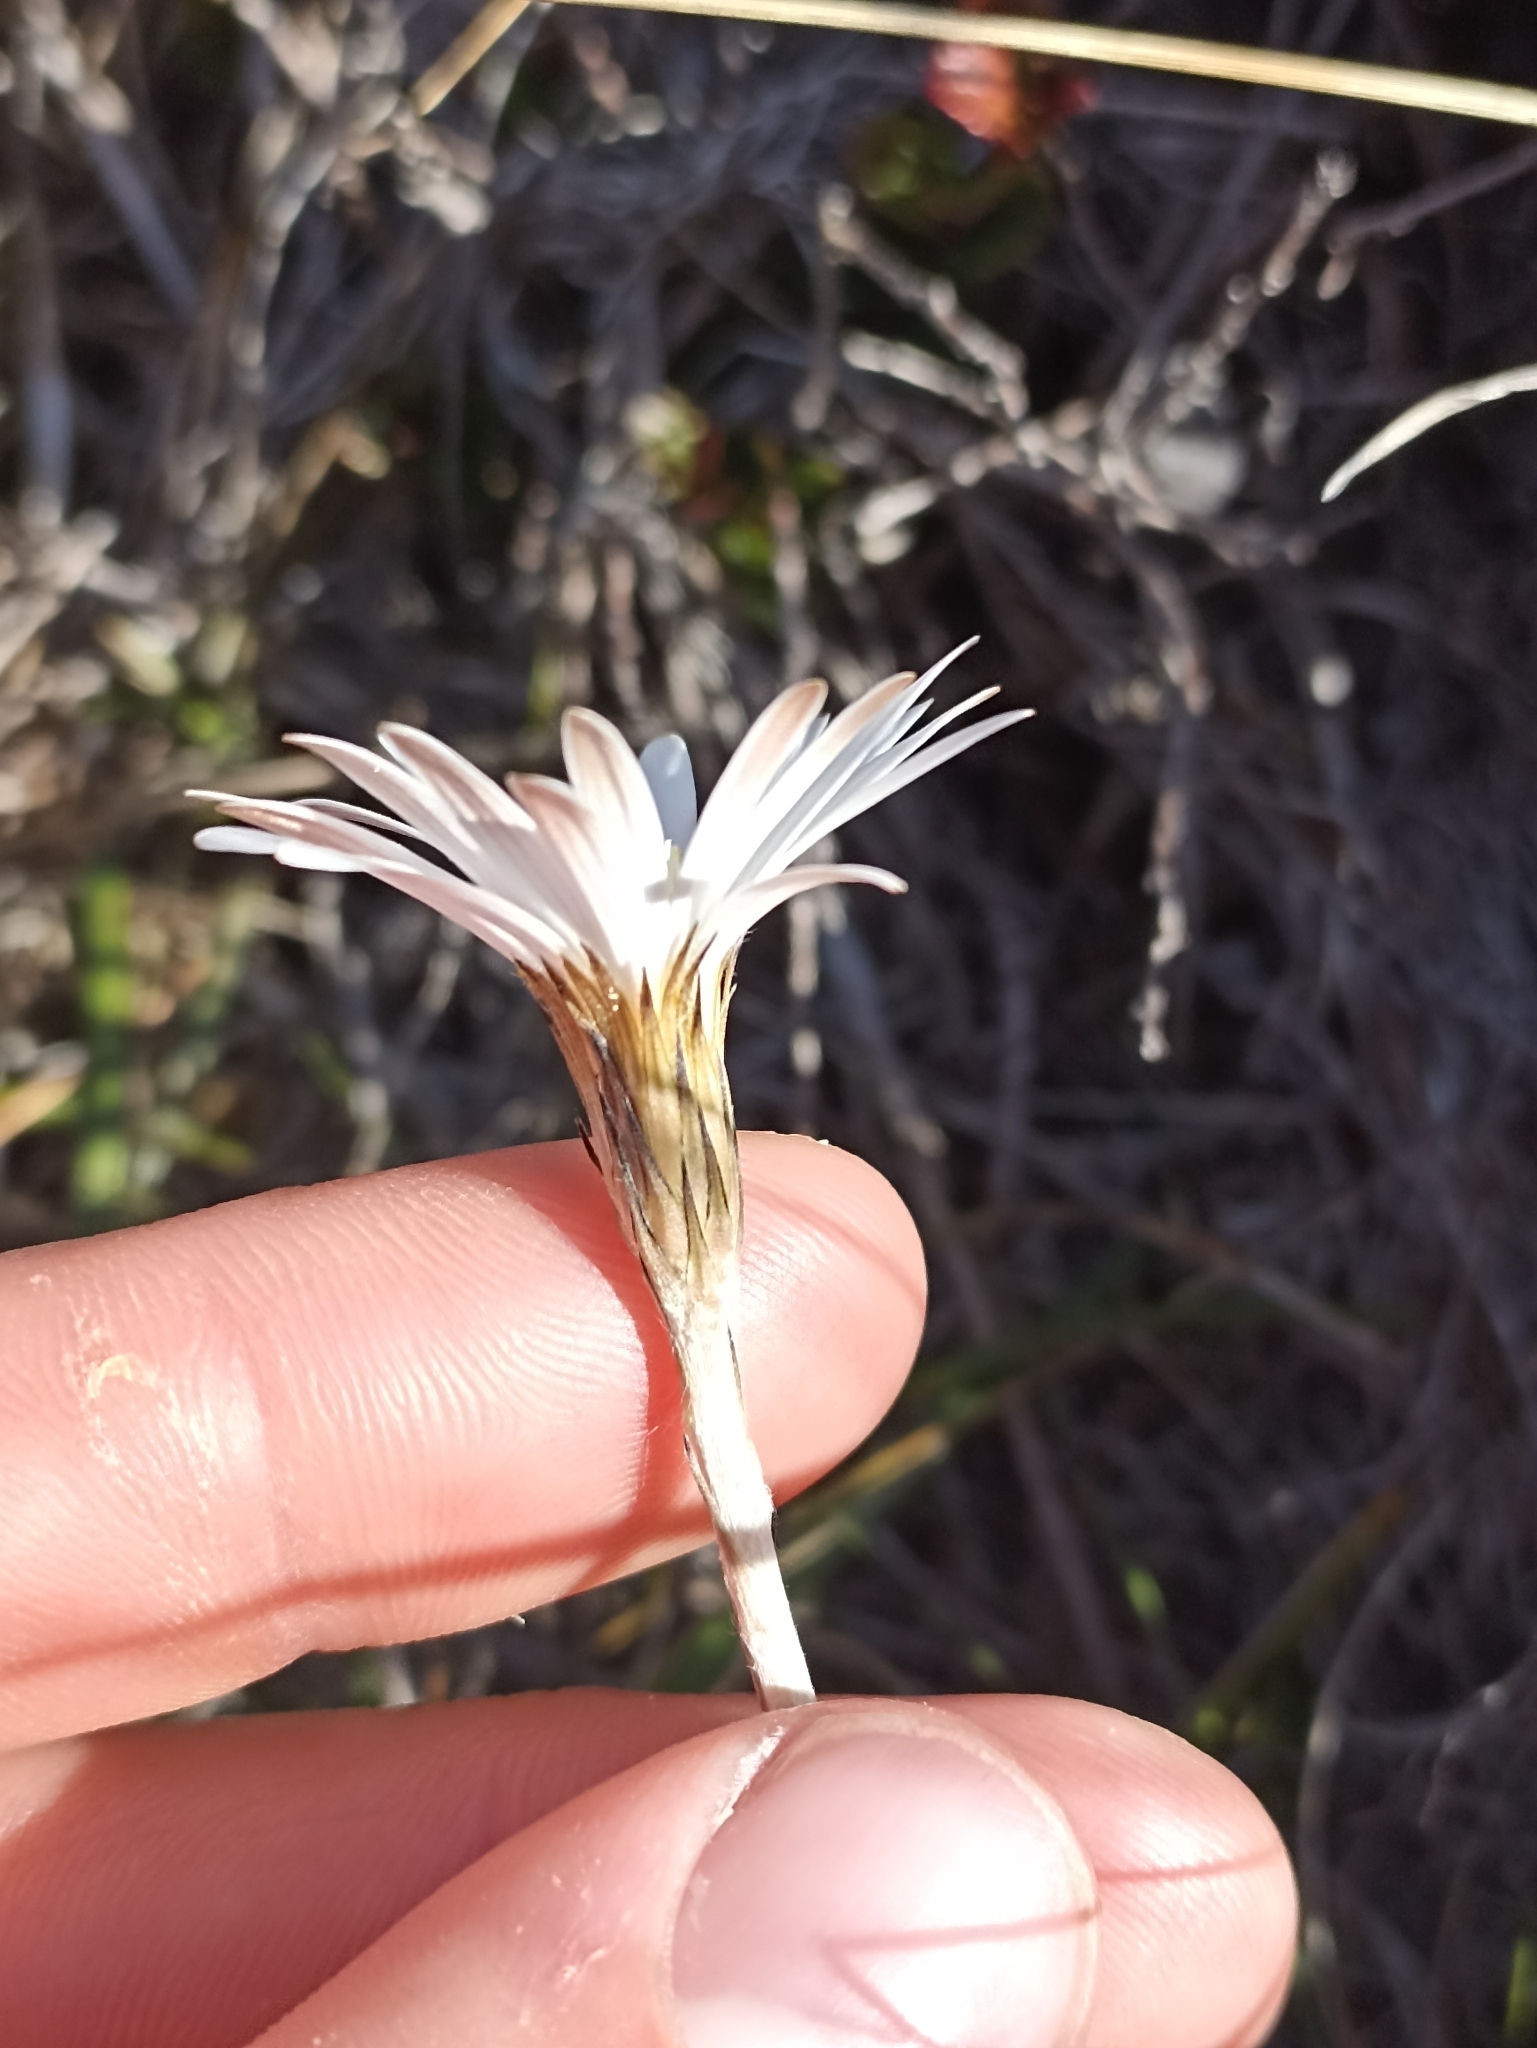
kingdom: Plantae
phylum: Tracheophyta
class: Magnoliopsida
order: Asterales
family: Asteraceae
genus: Celmisia
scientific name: Celmisia gracilenta
